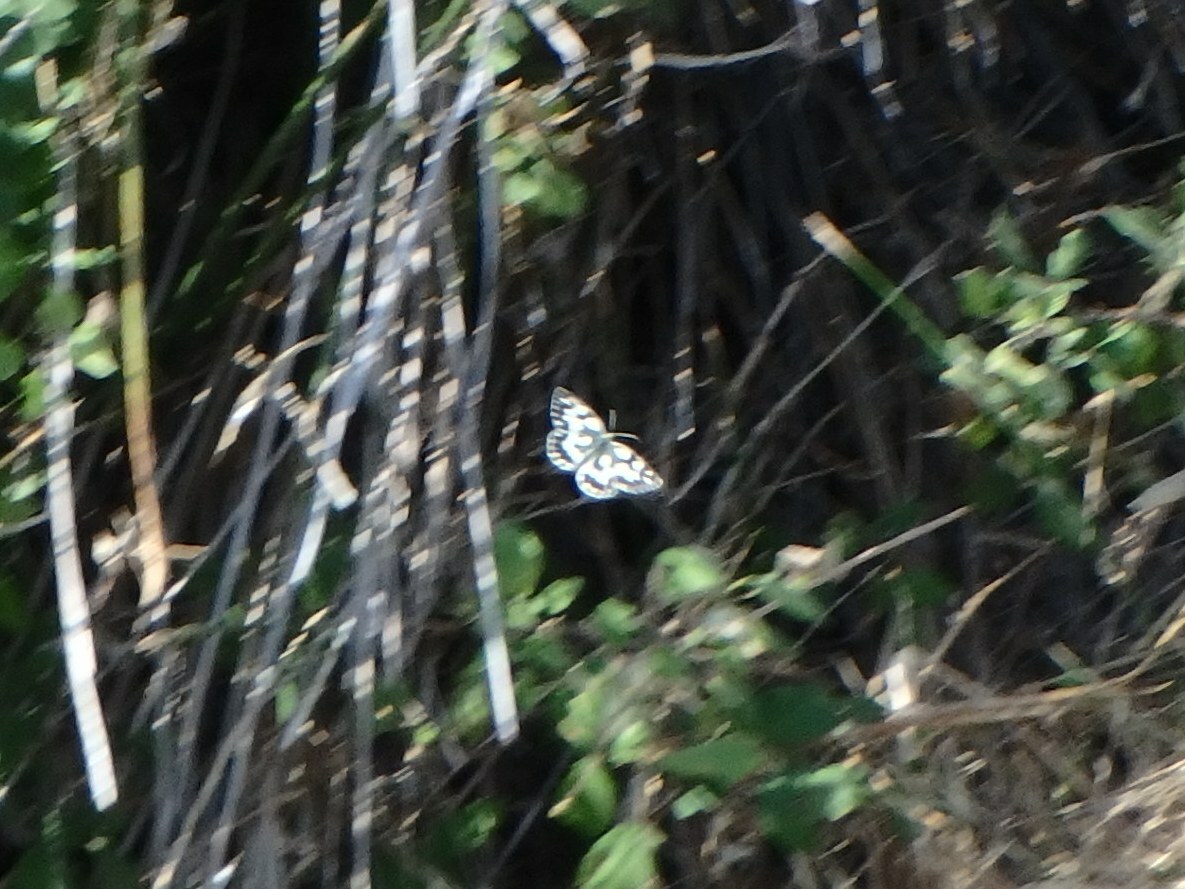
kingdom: Animalia
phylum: Arthropoda
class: Insecta
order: Lepidoptera
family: Nymphalidae
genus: Melanargia
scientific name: Melanargia galathea
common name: Marbled white
